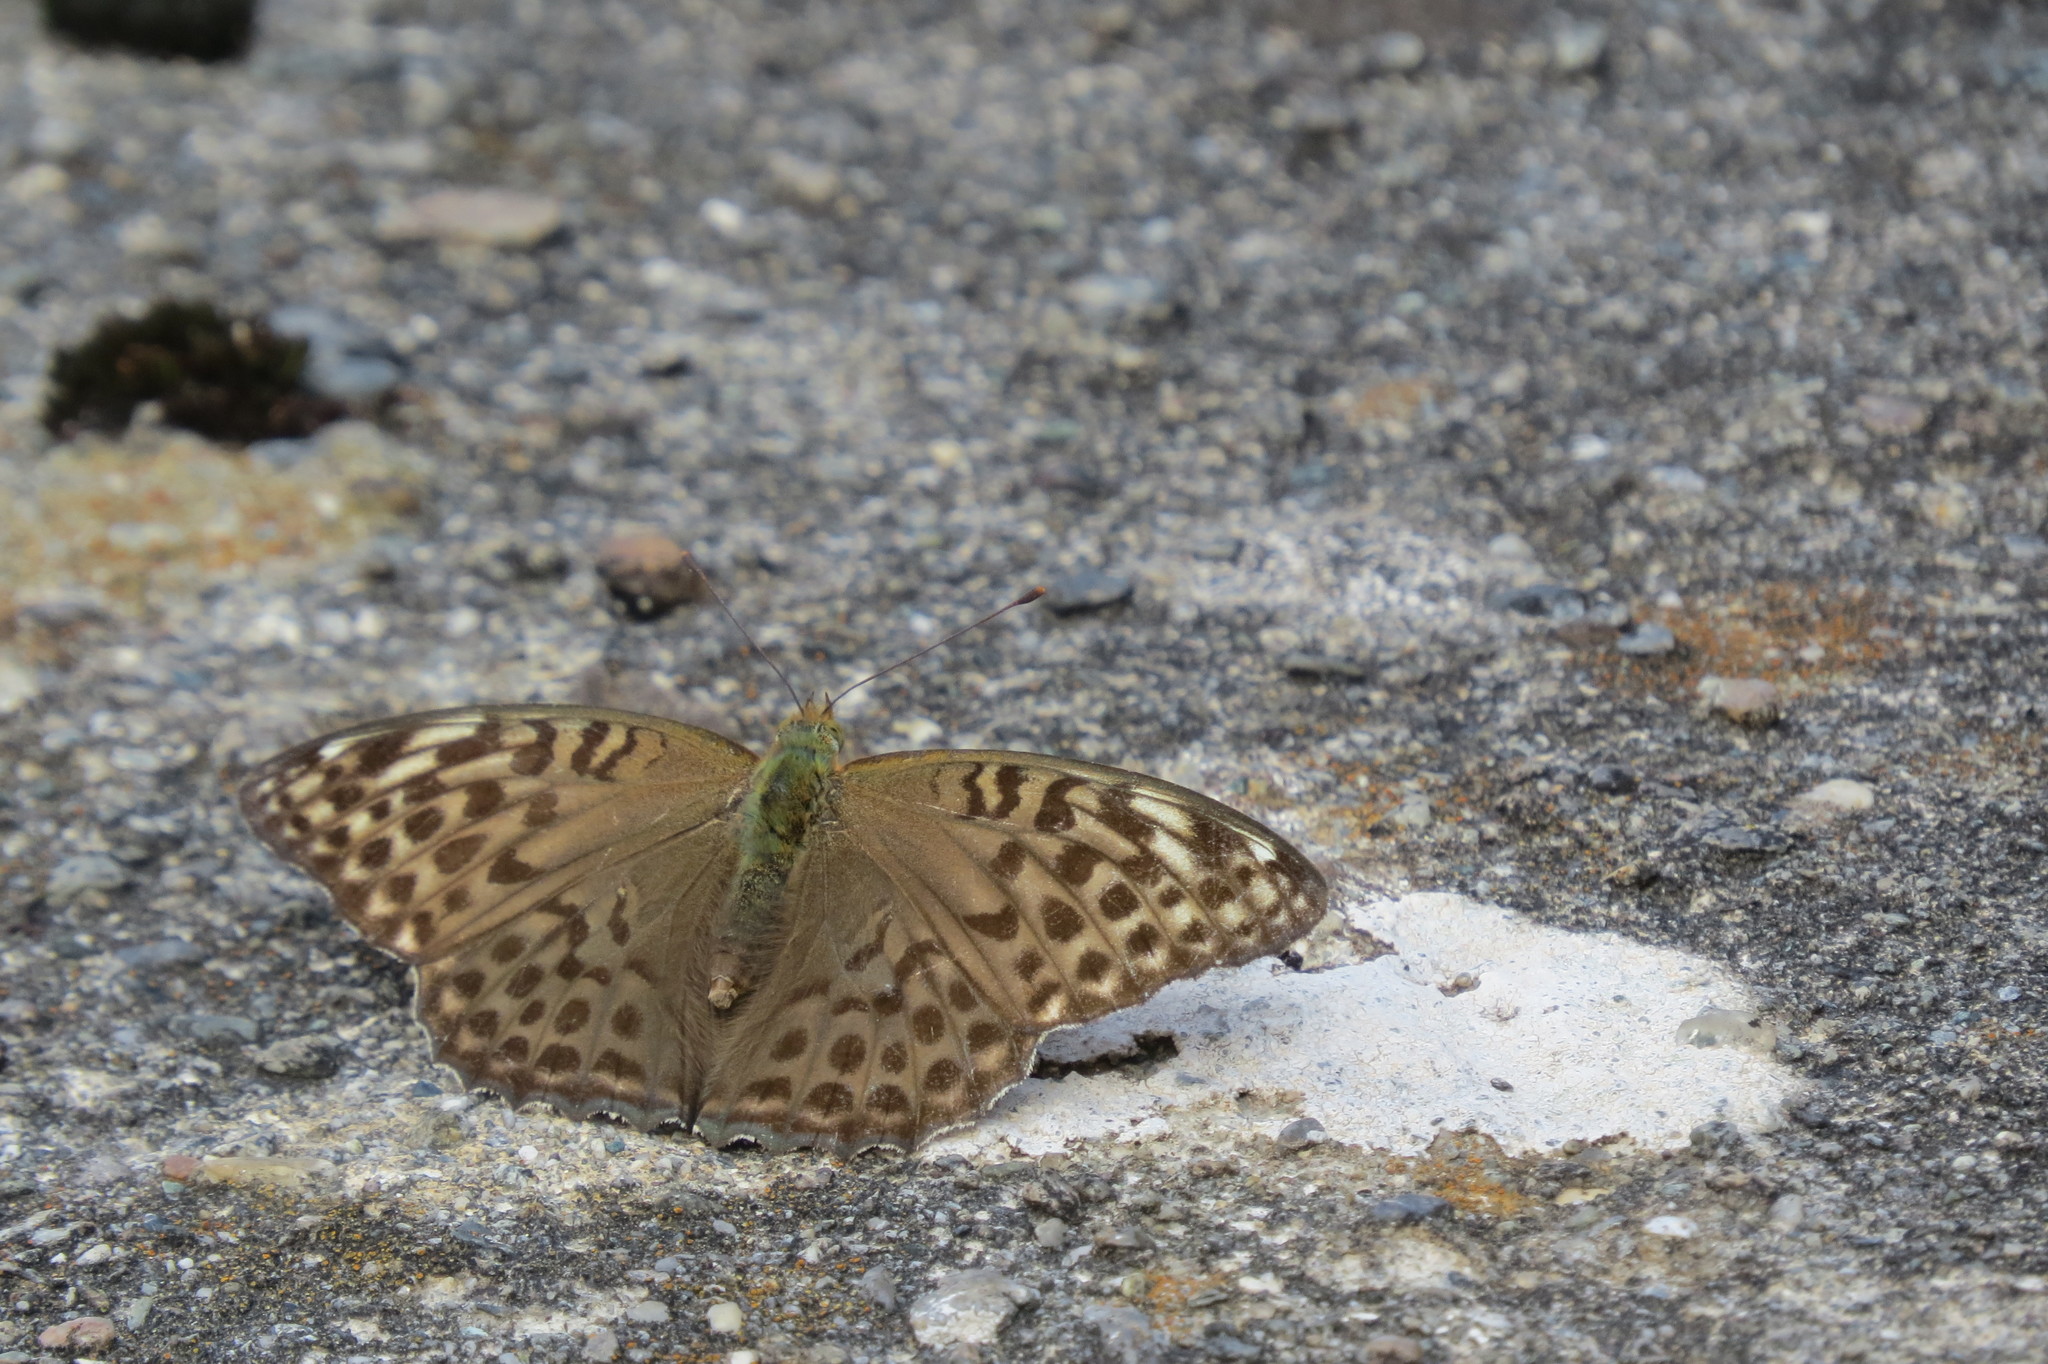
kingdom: Animalia
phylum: Arthropoda
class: Insecta
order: Lepidoptera
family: Nymphalidae
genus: Argynnis
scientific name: Argynnis paphia
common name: Silver-washed fritillary
